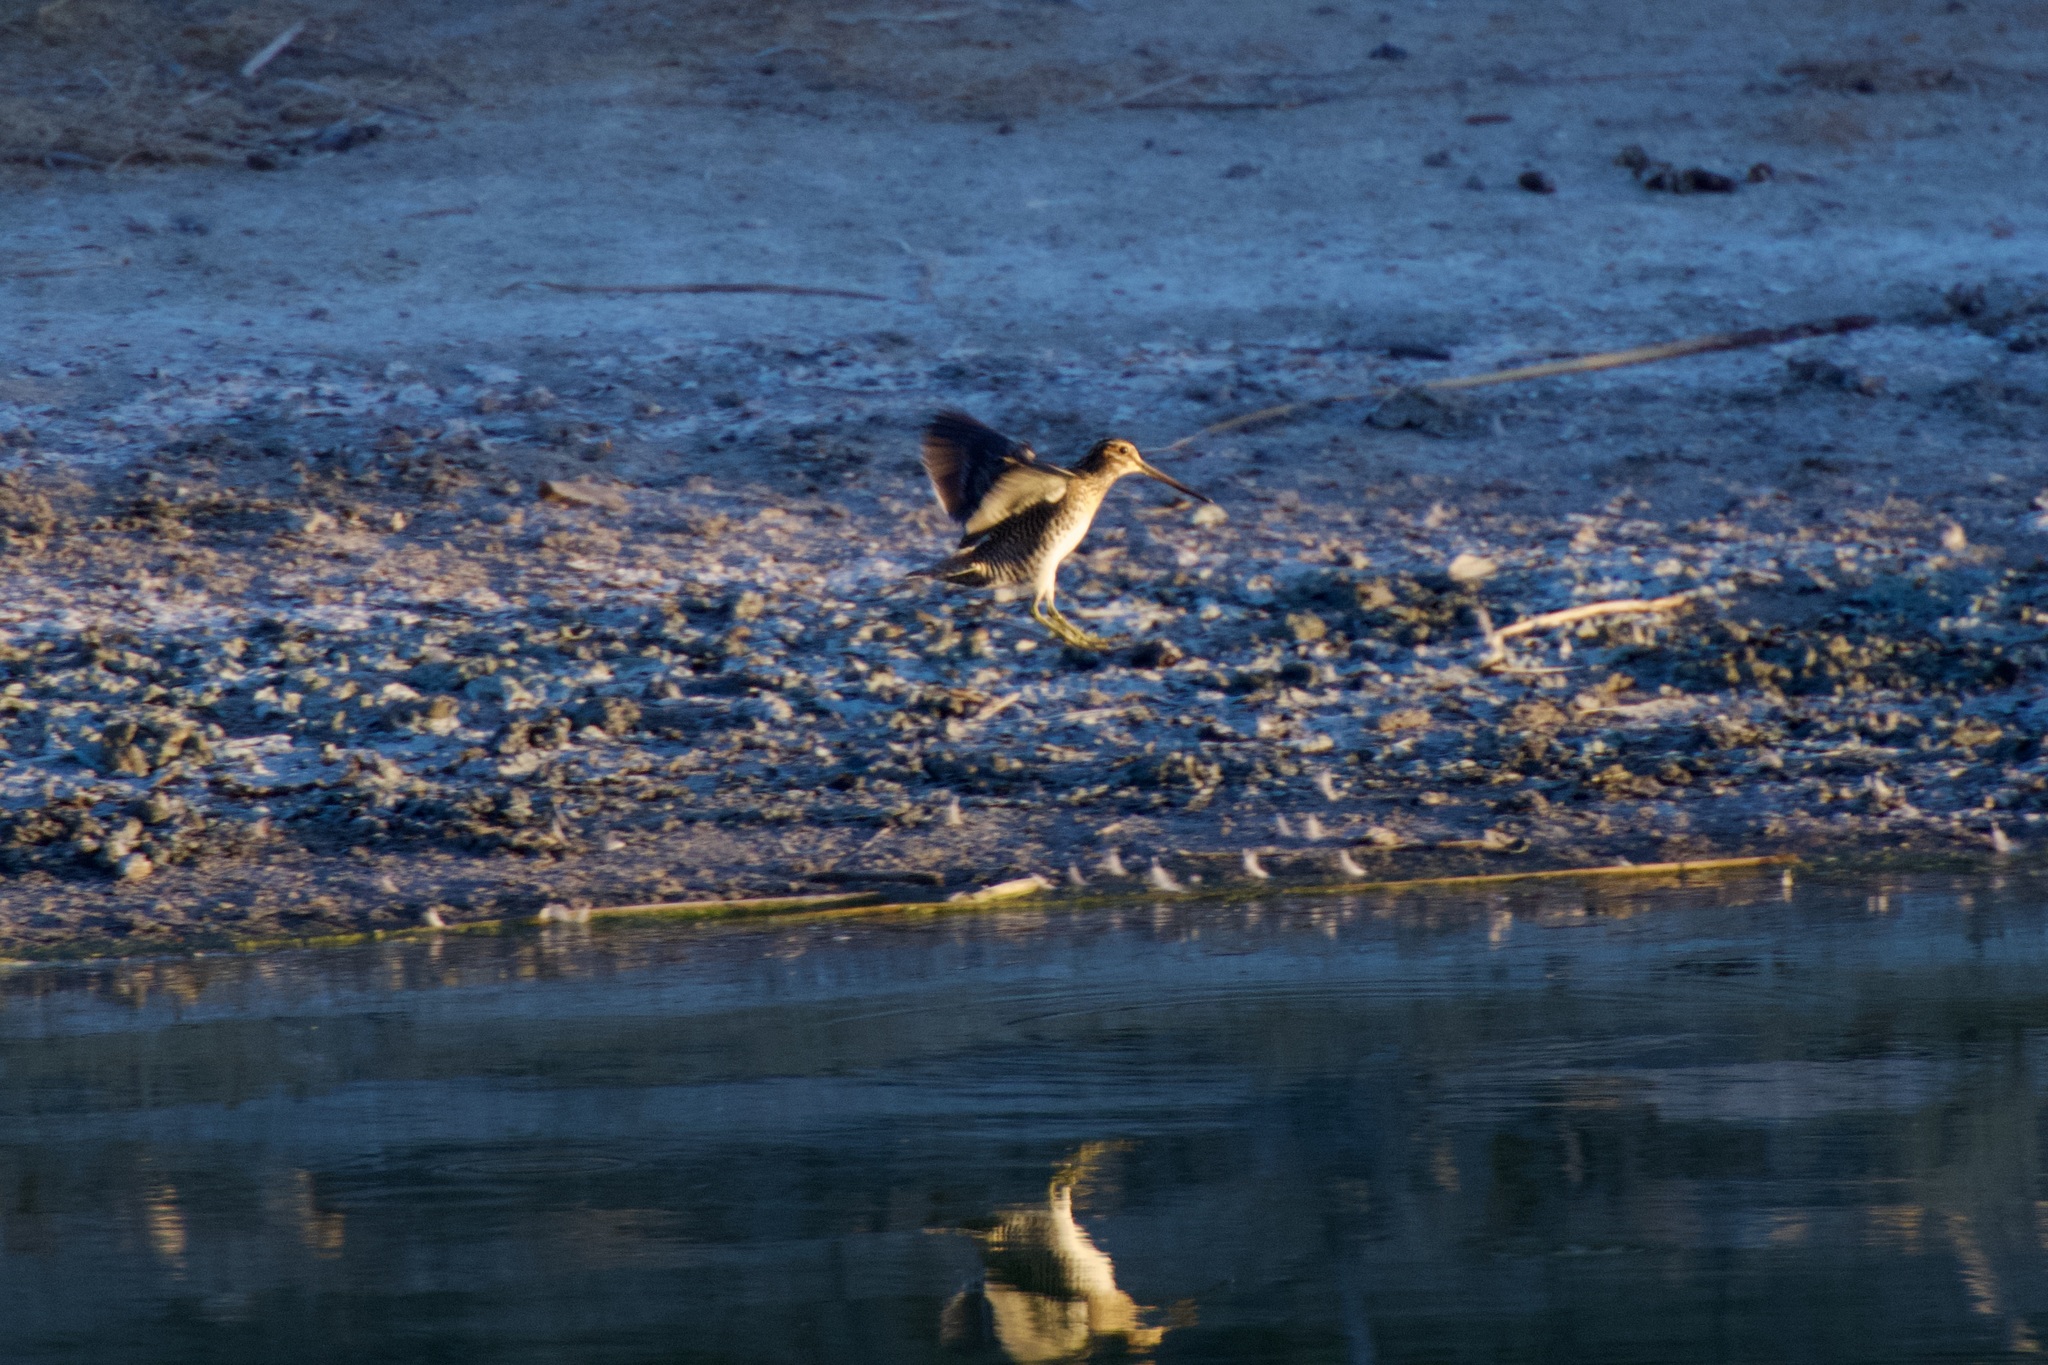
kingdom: Animalia
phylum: Chordata
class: Aves
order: Charadriiformes
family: Scolopacidae
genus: Gallinago
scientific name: Gallinago delicata
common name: Wilson's snipe
